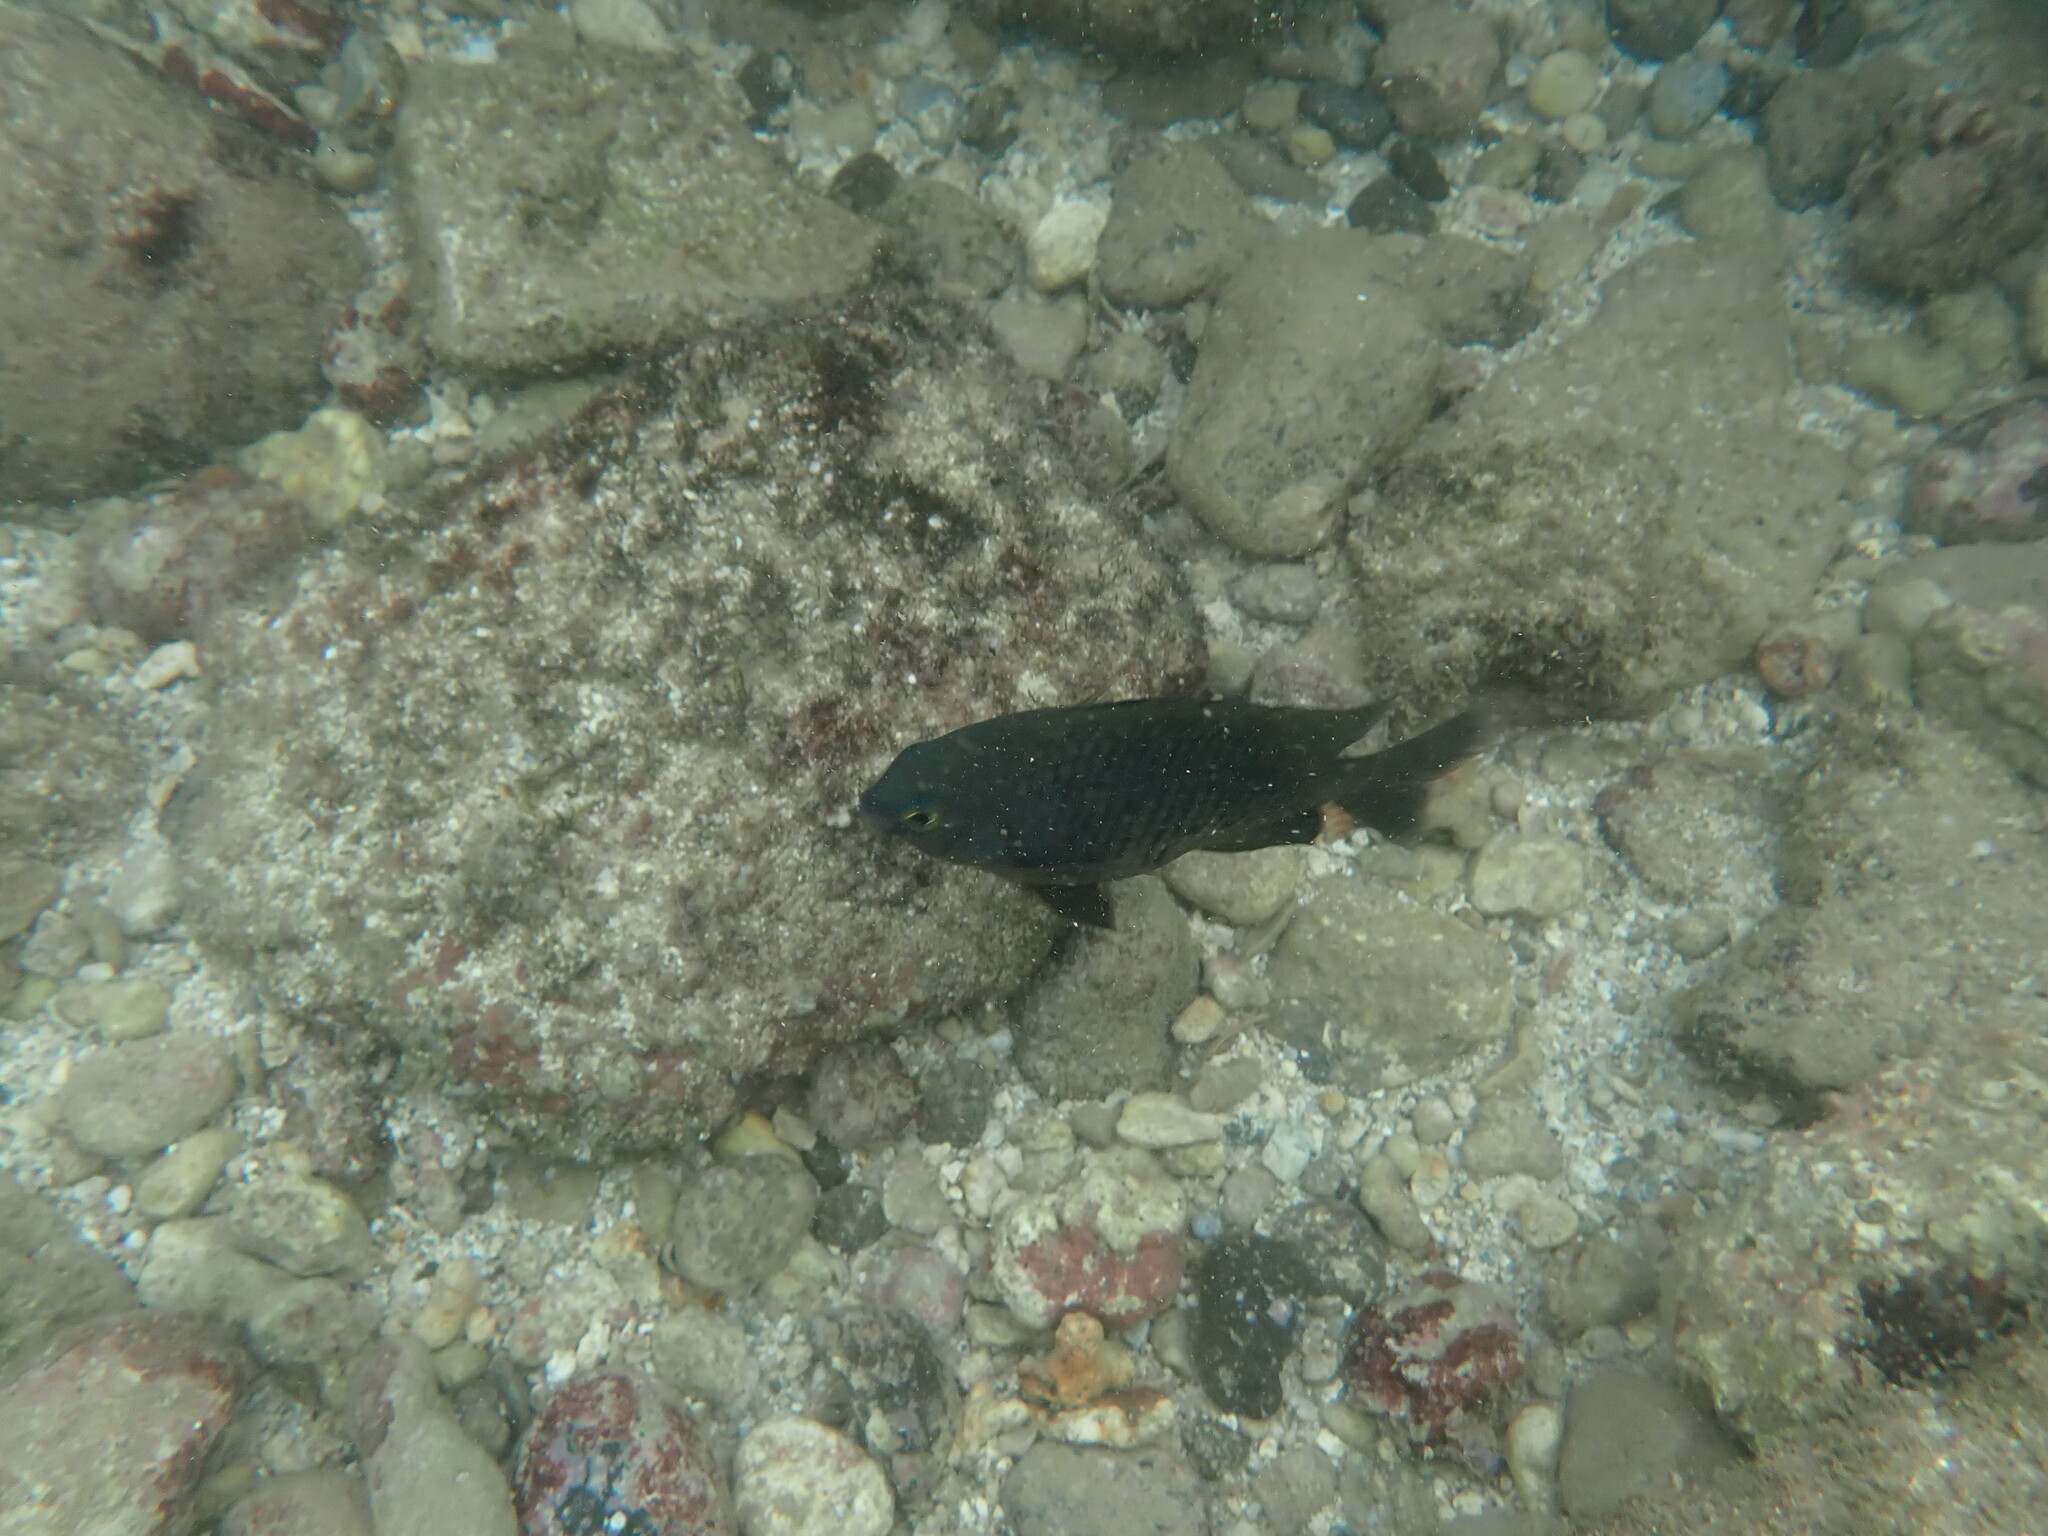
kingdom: Animalia
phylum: Chordata
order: Perciformes
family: Pomacentridae
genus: Stegastes
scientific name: Stegastes fasciolatus
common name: Pacific gregory
